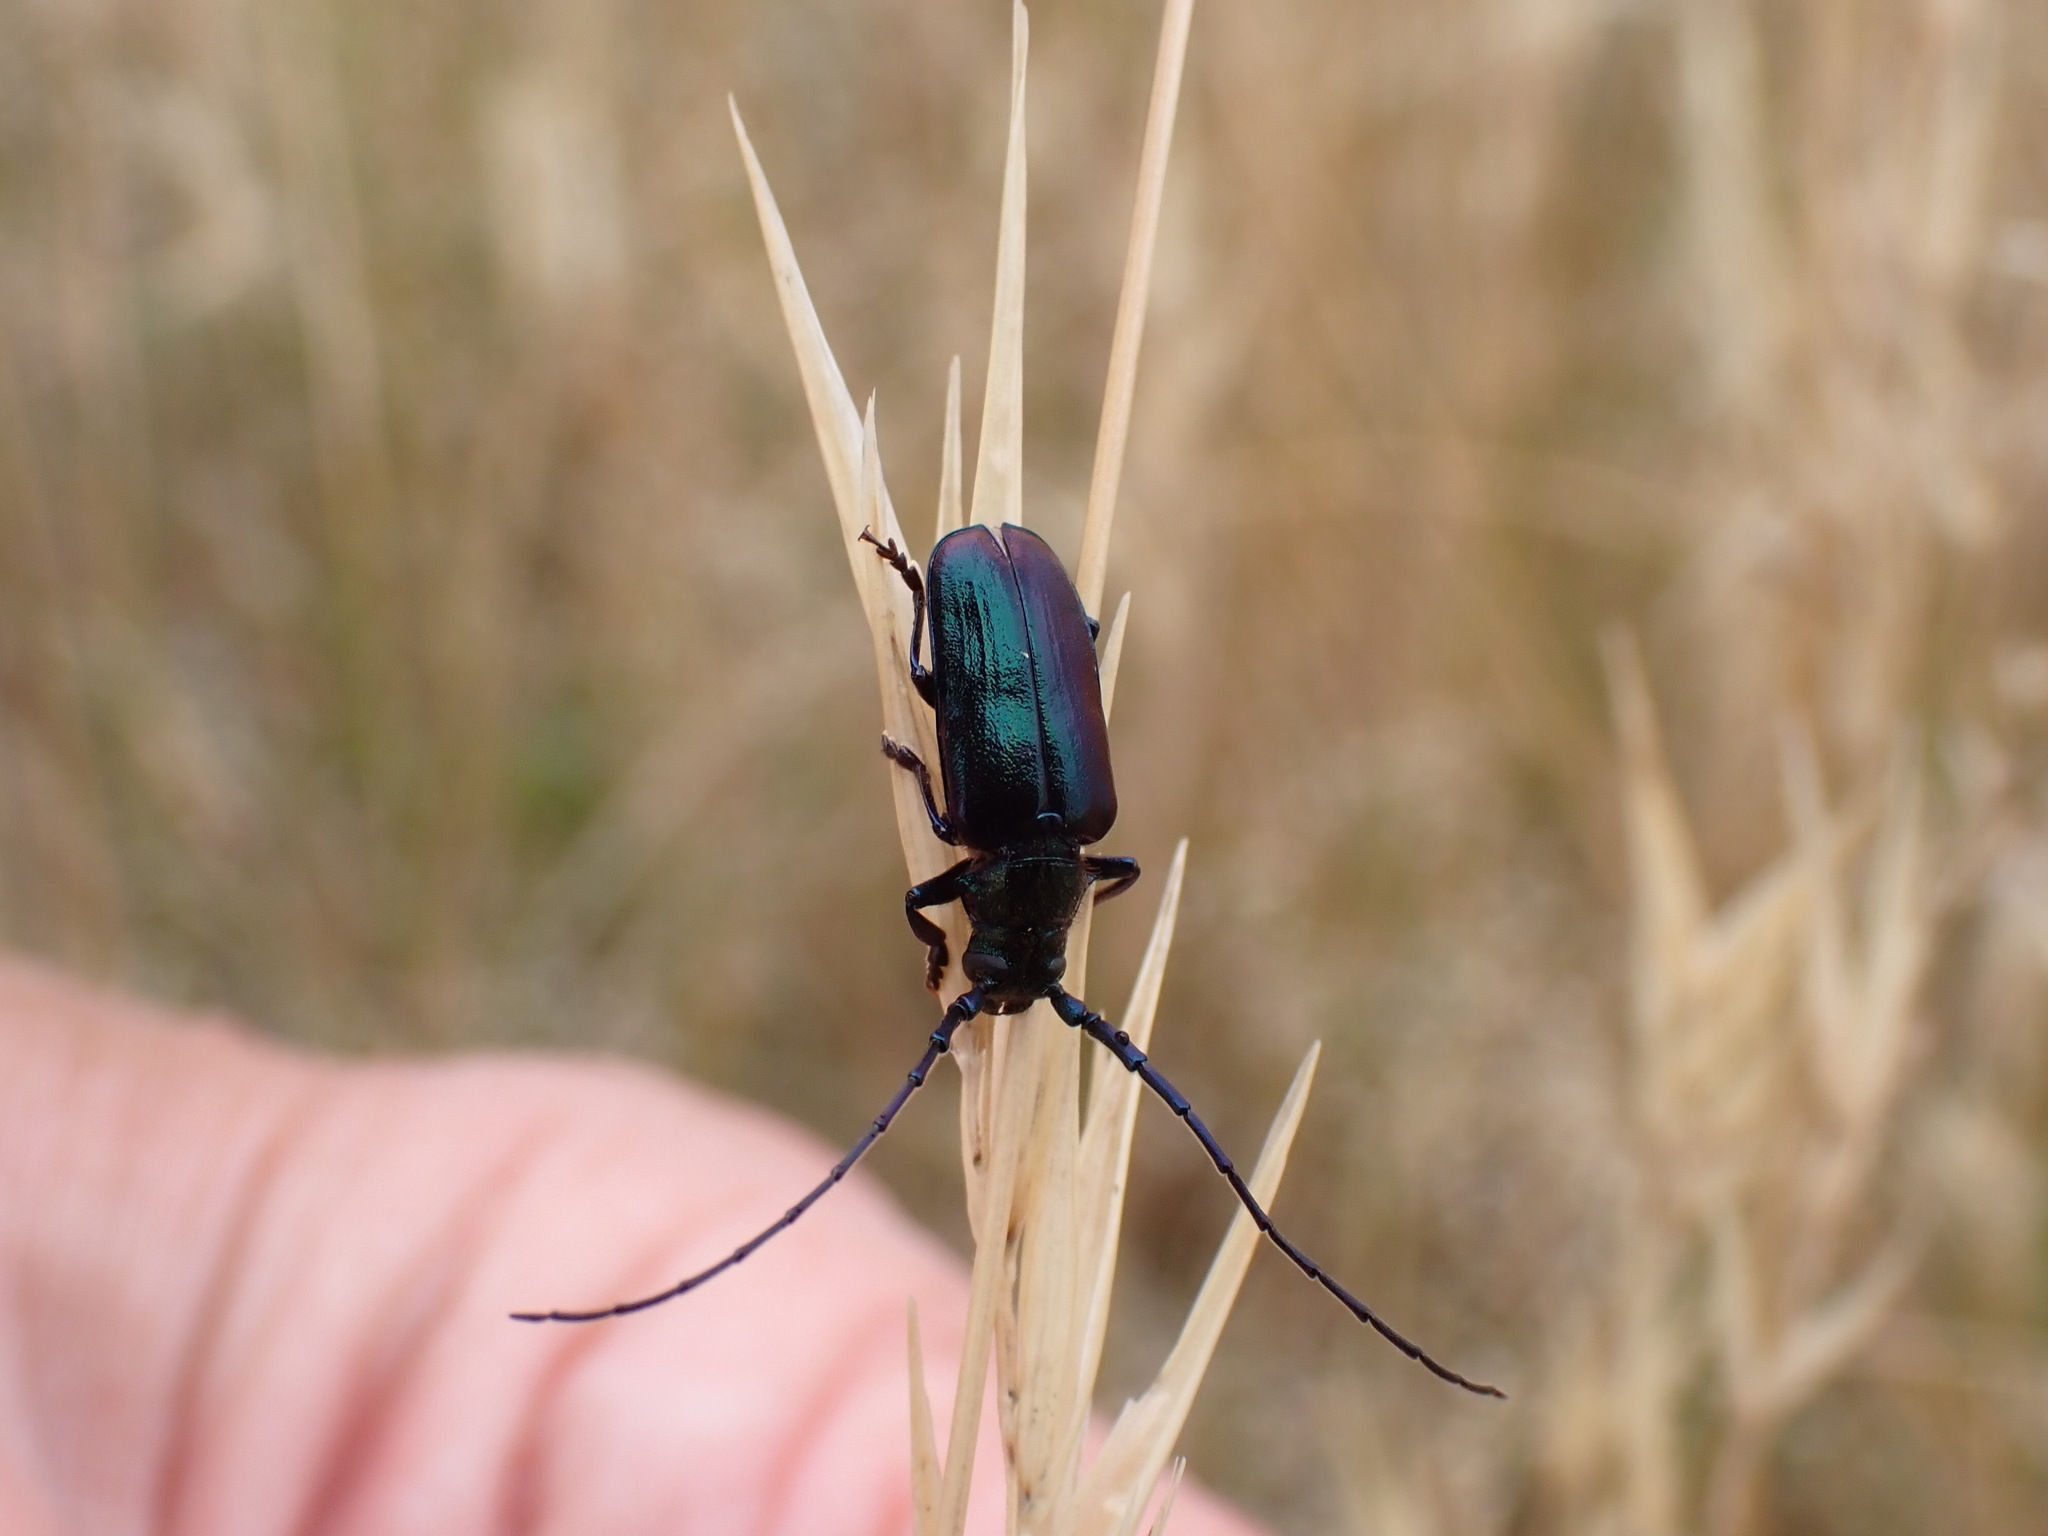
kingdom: Animalia
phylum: Arthropoda
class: Insecta
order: Coleoptera
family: Cerambycidae
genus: Phaolus
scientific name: Phaolus metallicus
